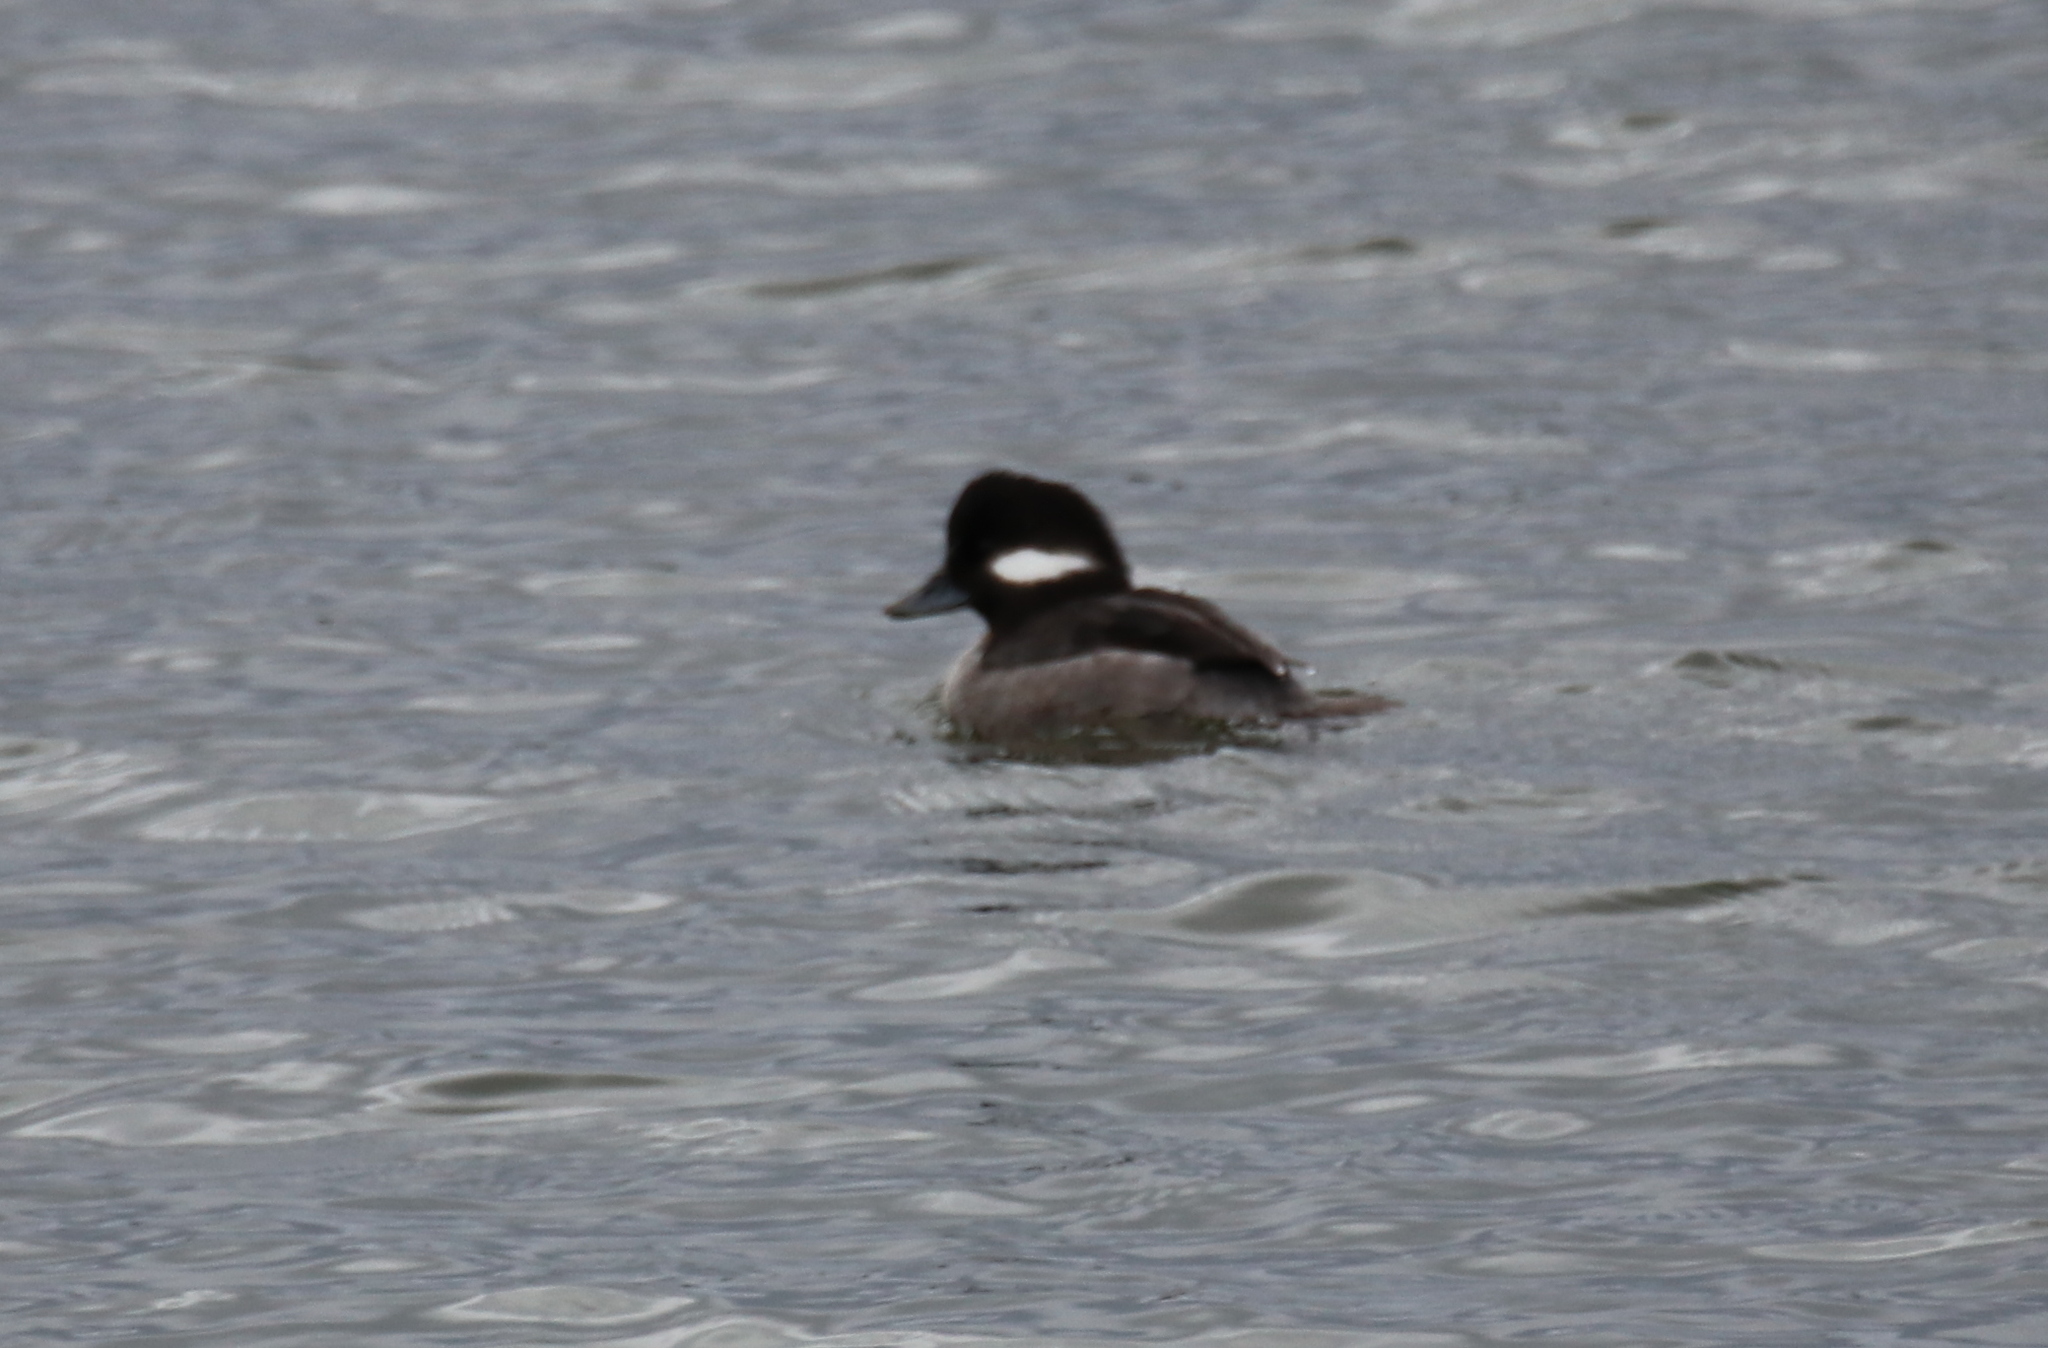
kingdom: Animalia
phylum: Chordata
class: Aves
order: Anseriformes
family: Anatidae
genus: Bucephala
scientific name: Bucephala albeola
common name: Bufflehead
